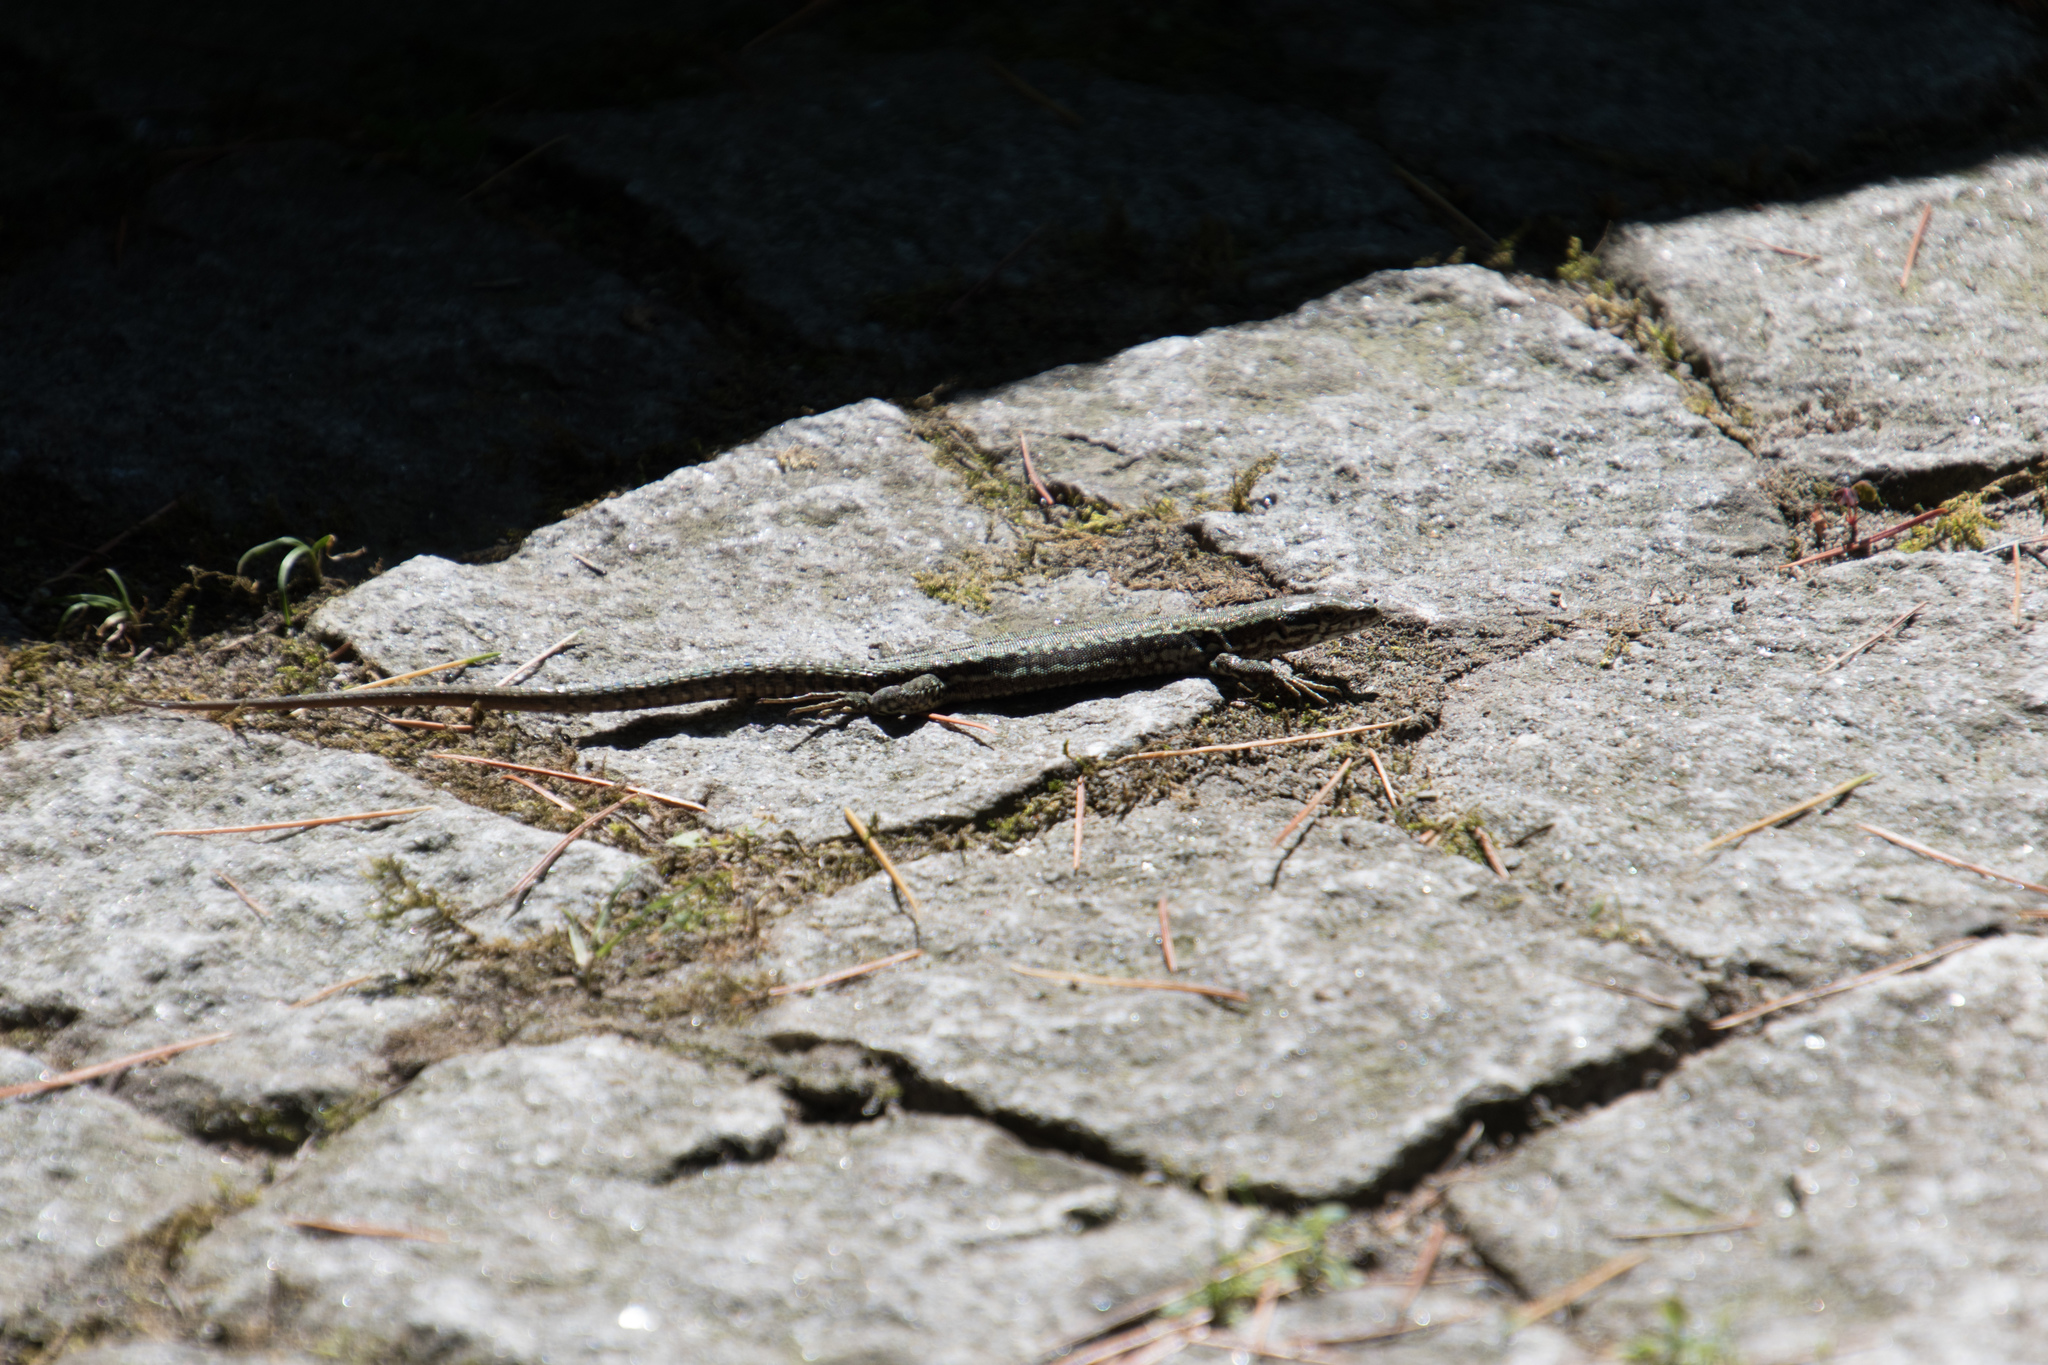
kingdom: Animalia
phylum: Chordata
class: Squamata
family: Lacertidae
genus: Podarcis
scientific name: Podarcis muralis
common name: Common wall lizard
